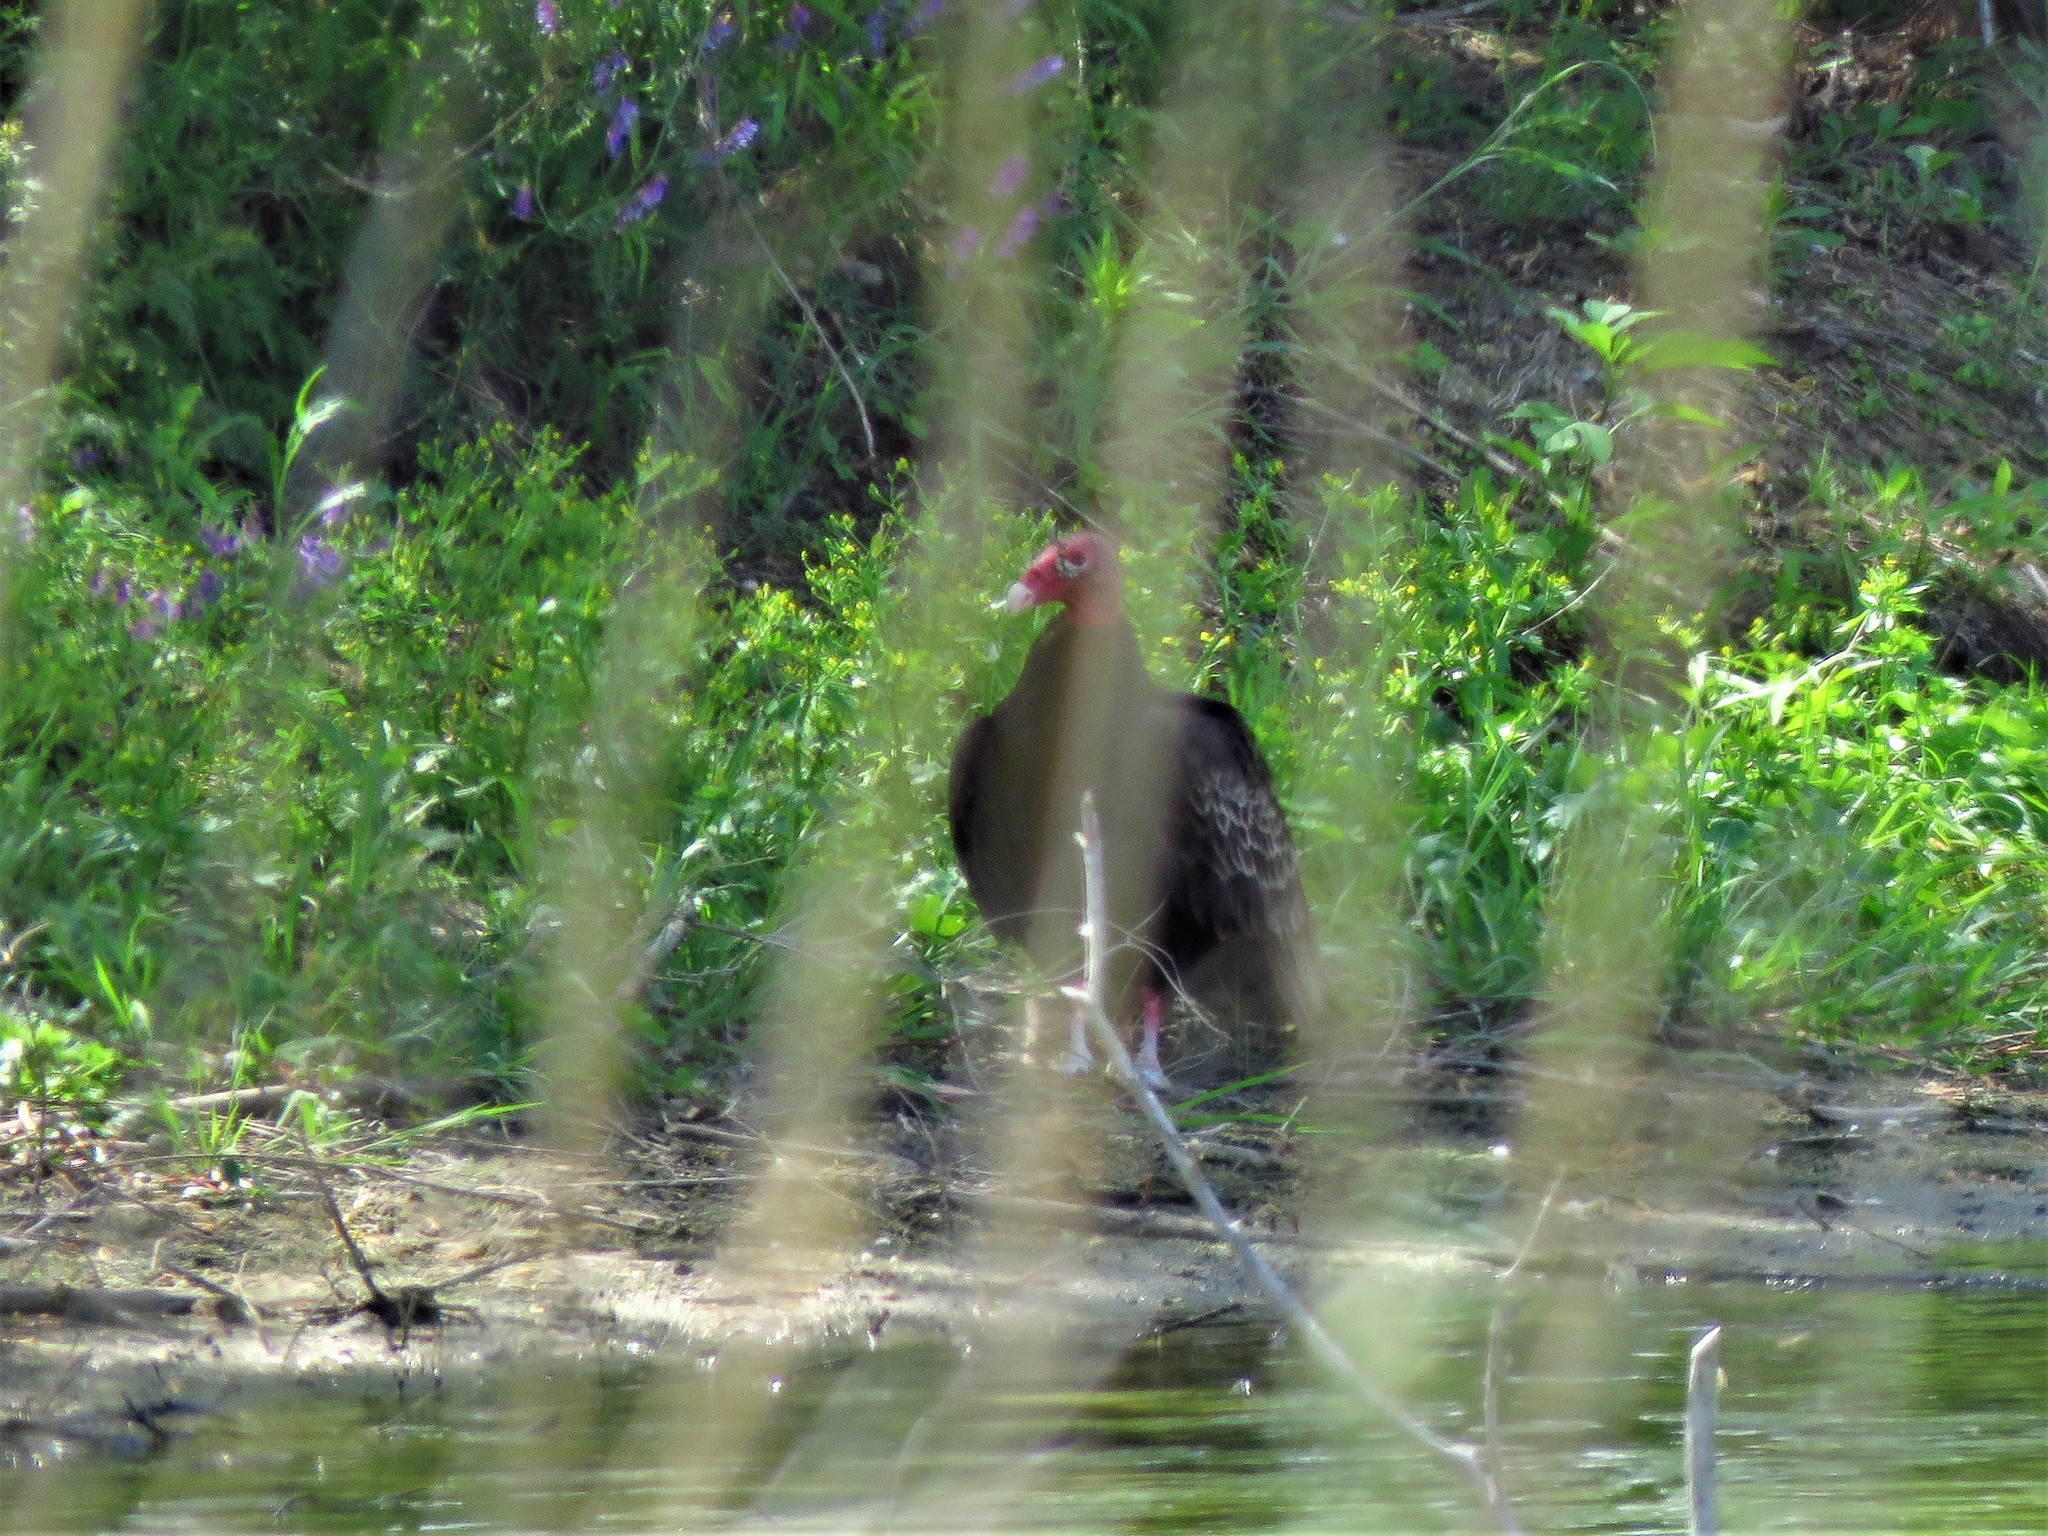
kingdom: Animalia
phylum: Chordata
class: Aves
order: Accipitriformes
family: Cathartidae
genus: Cathartes
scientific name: Cathartes aura
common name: Turkey vulture
